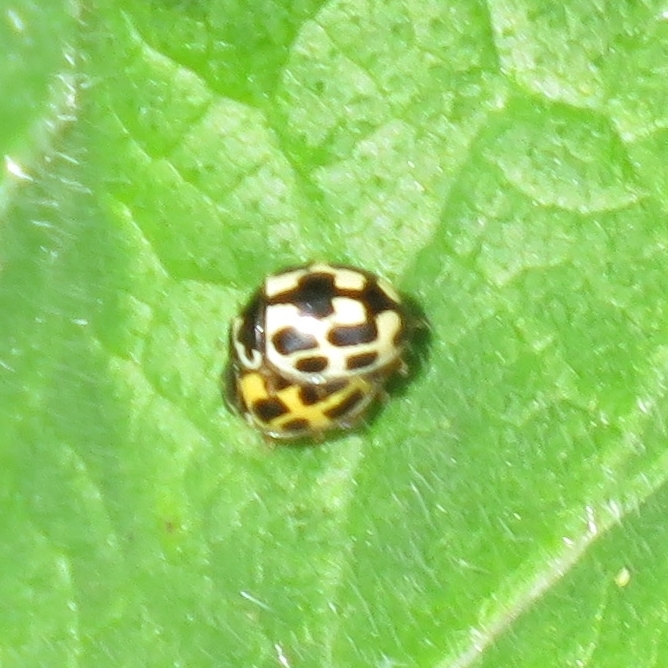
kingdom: Animalia
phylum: Arthropoda
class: Insecta
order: Coleoptera
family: Coccinellidae
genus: Propylaea
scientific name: Propylaea quatuordecimpunctata
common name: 14-spotted ladybird beetle
